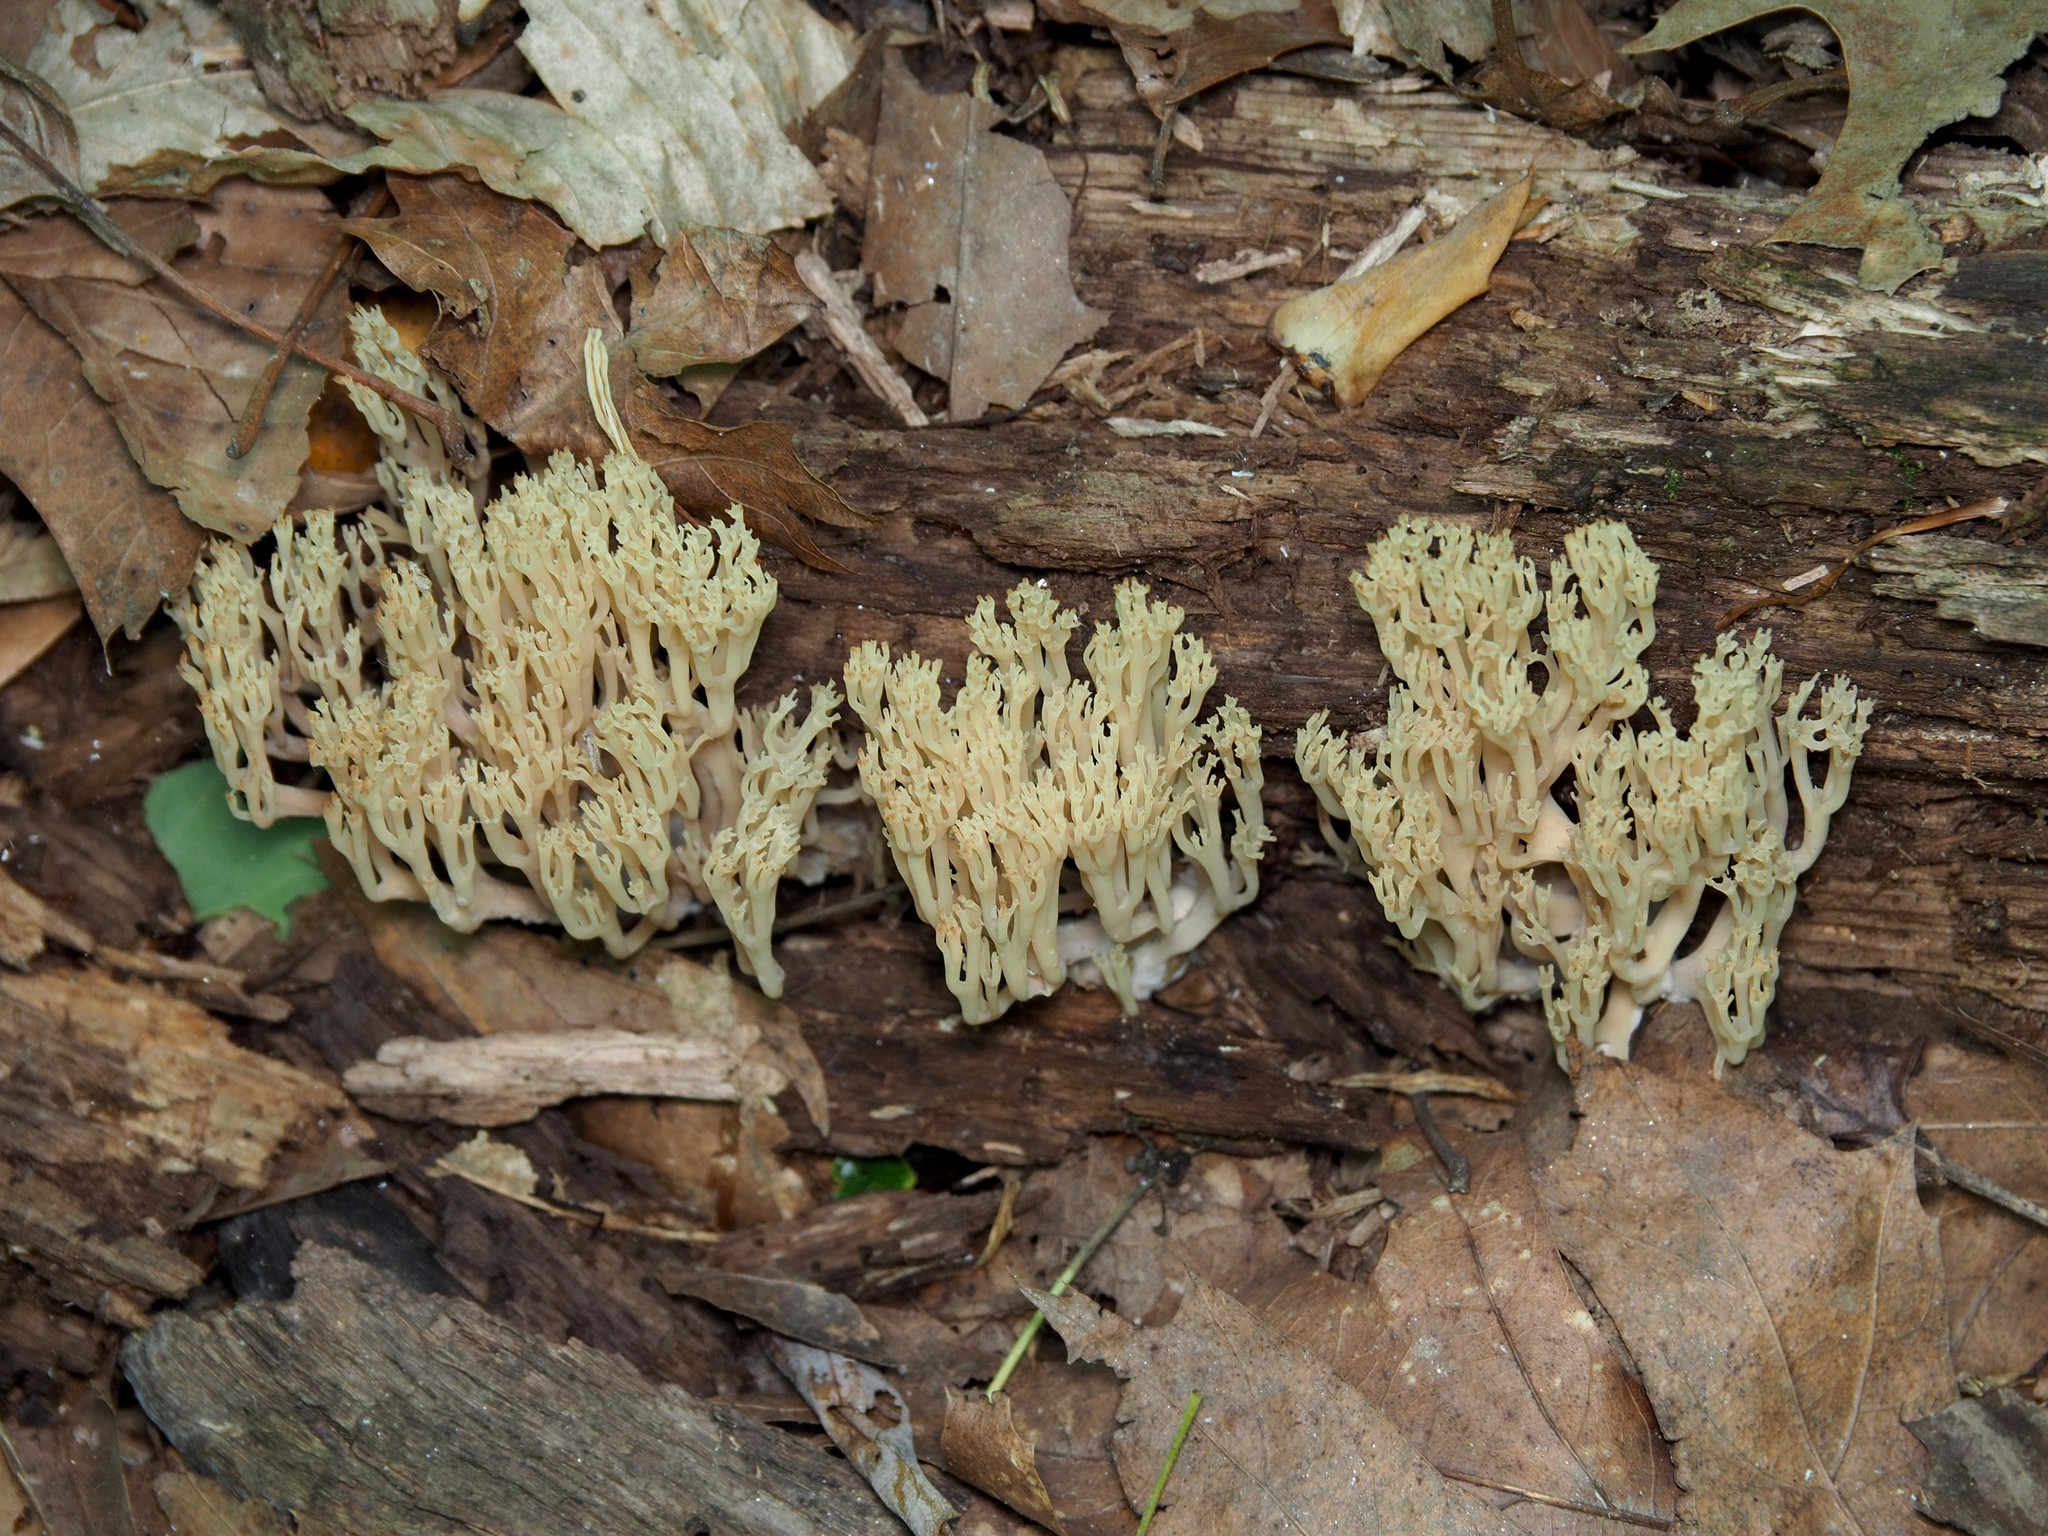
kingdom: Fungi
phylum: Basidiomycota
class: Agaricomycetes
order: Russulales
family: Auriscalpiaceae
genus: Artomyces
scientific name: Artomyces pyxidatus
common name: Crown-tipped coral fungus
